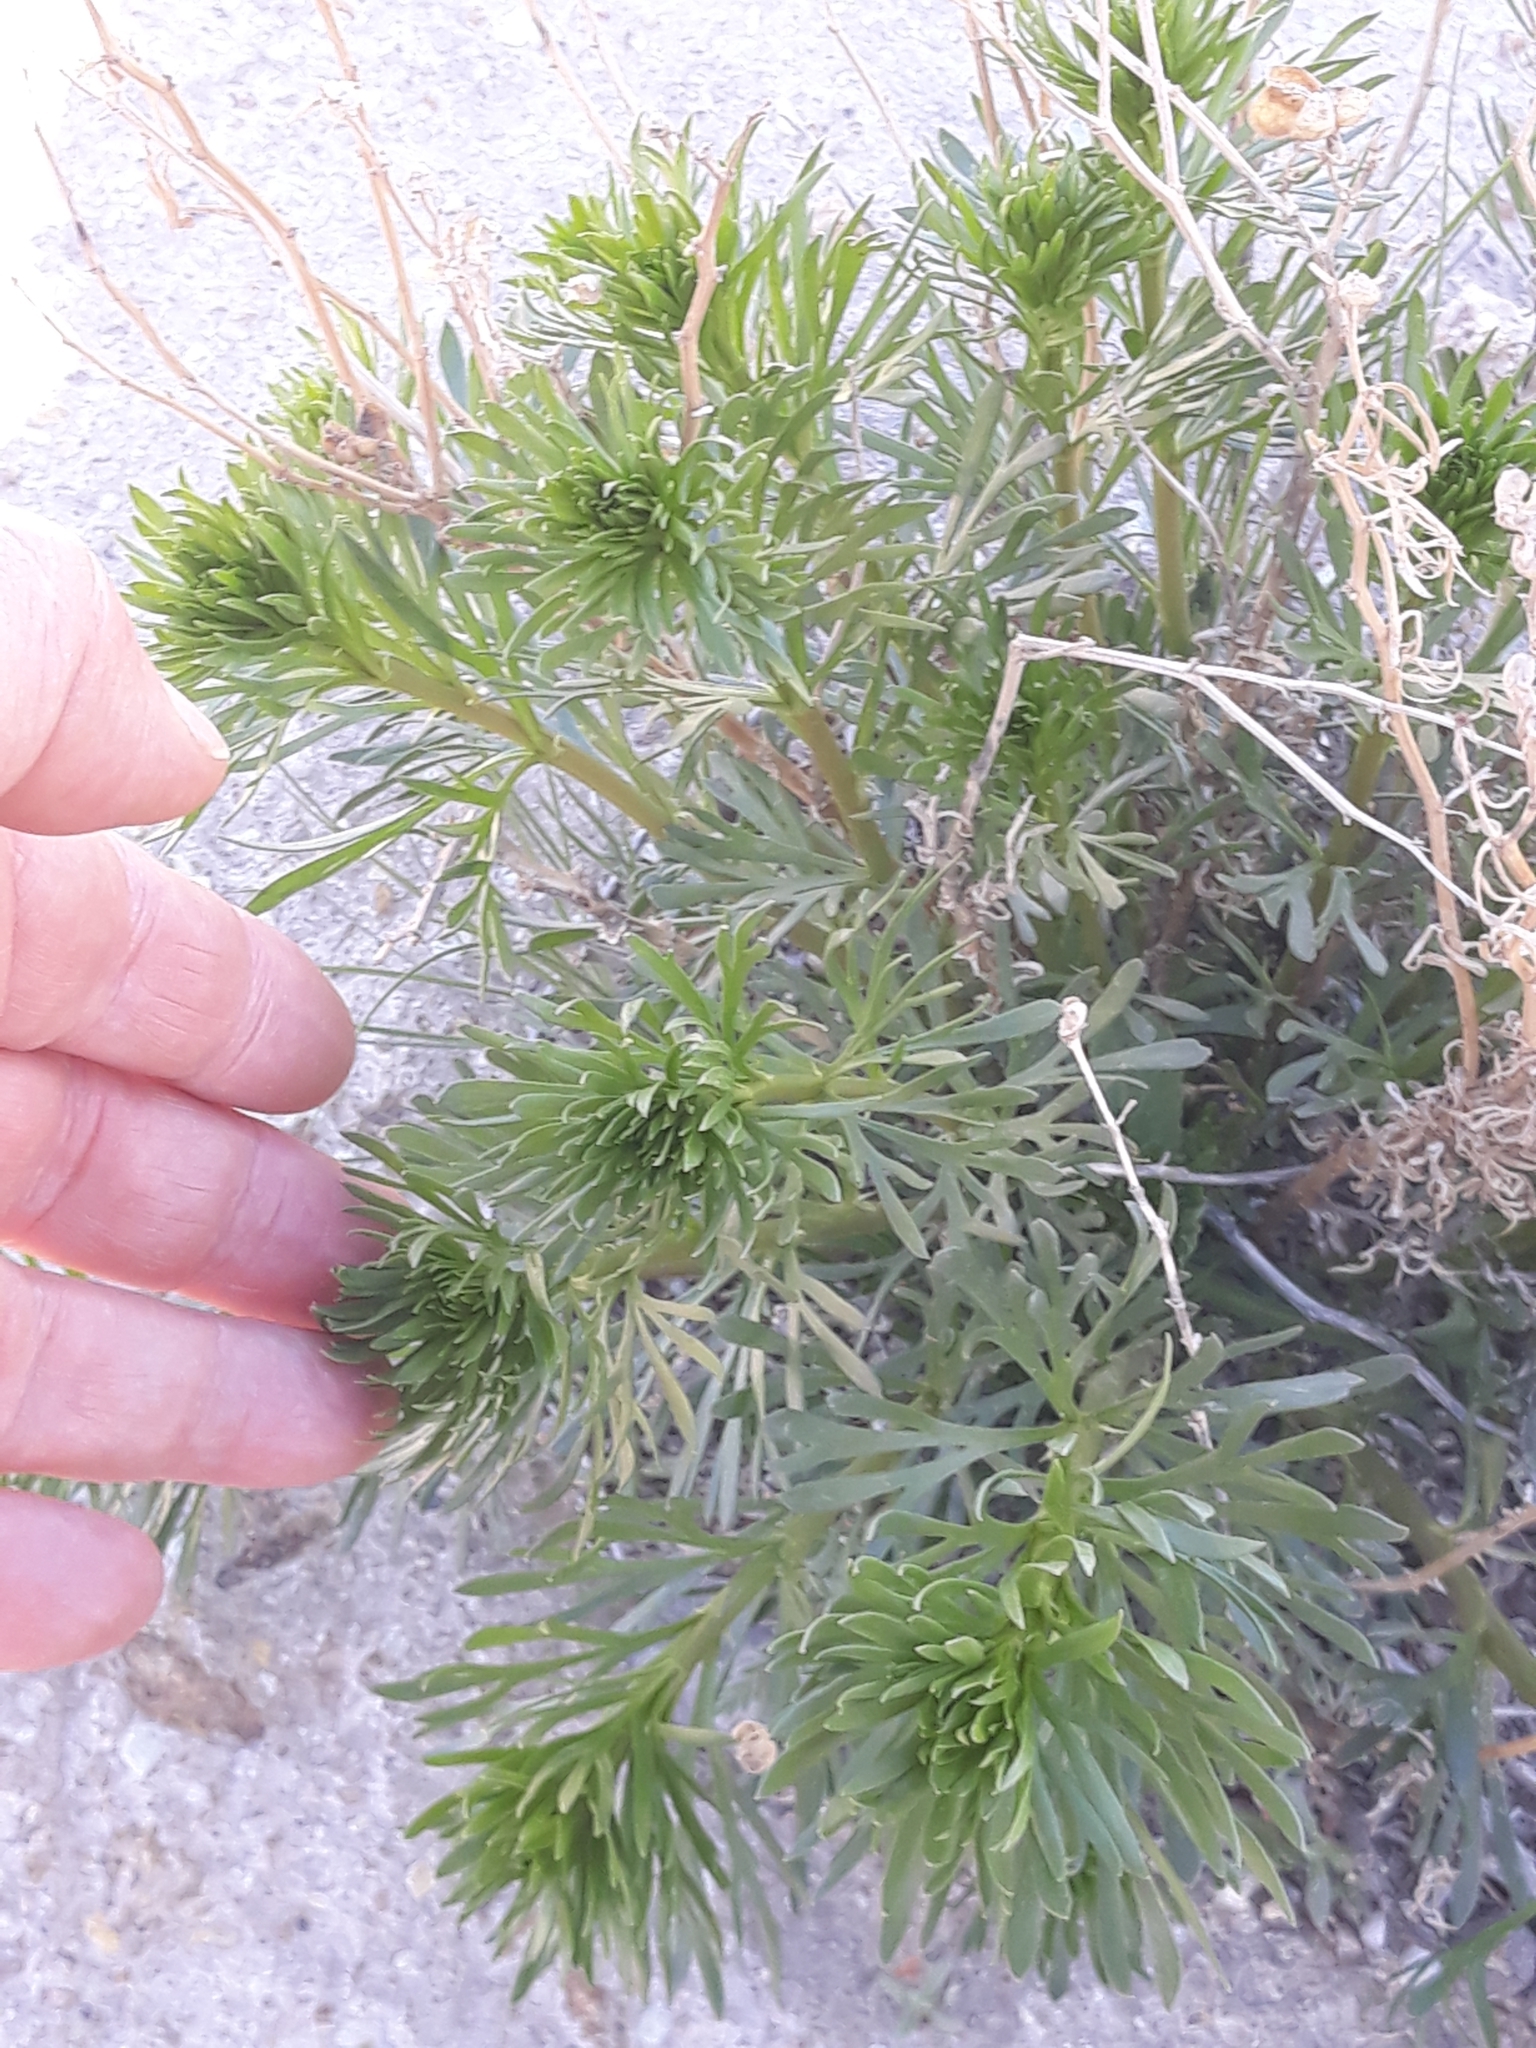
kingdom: Plantae
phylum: Tracheophyta
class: Magnoliopsida
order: Sapindales
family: Tetradiclidaceae
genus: Peganum
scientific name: Peganum harmala
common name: Harmal peganum
